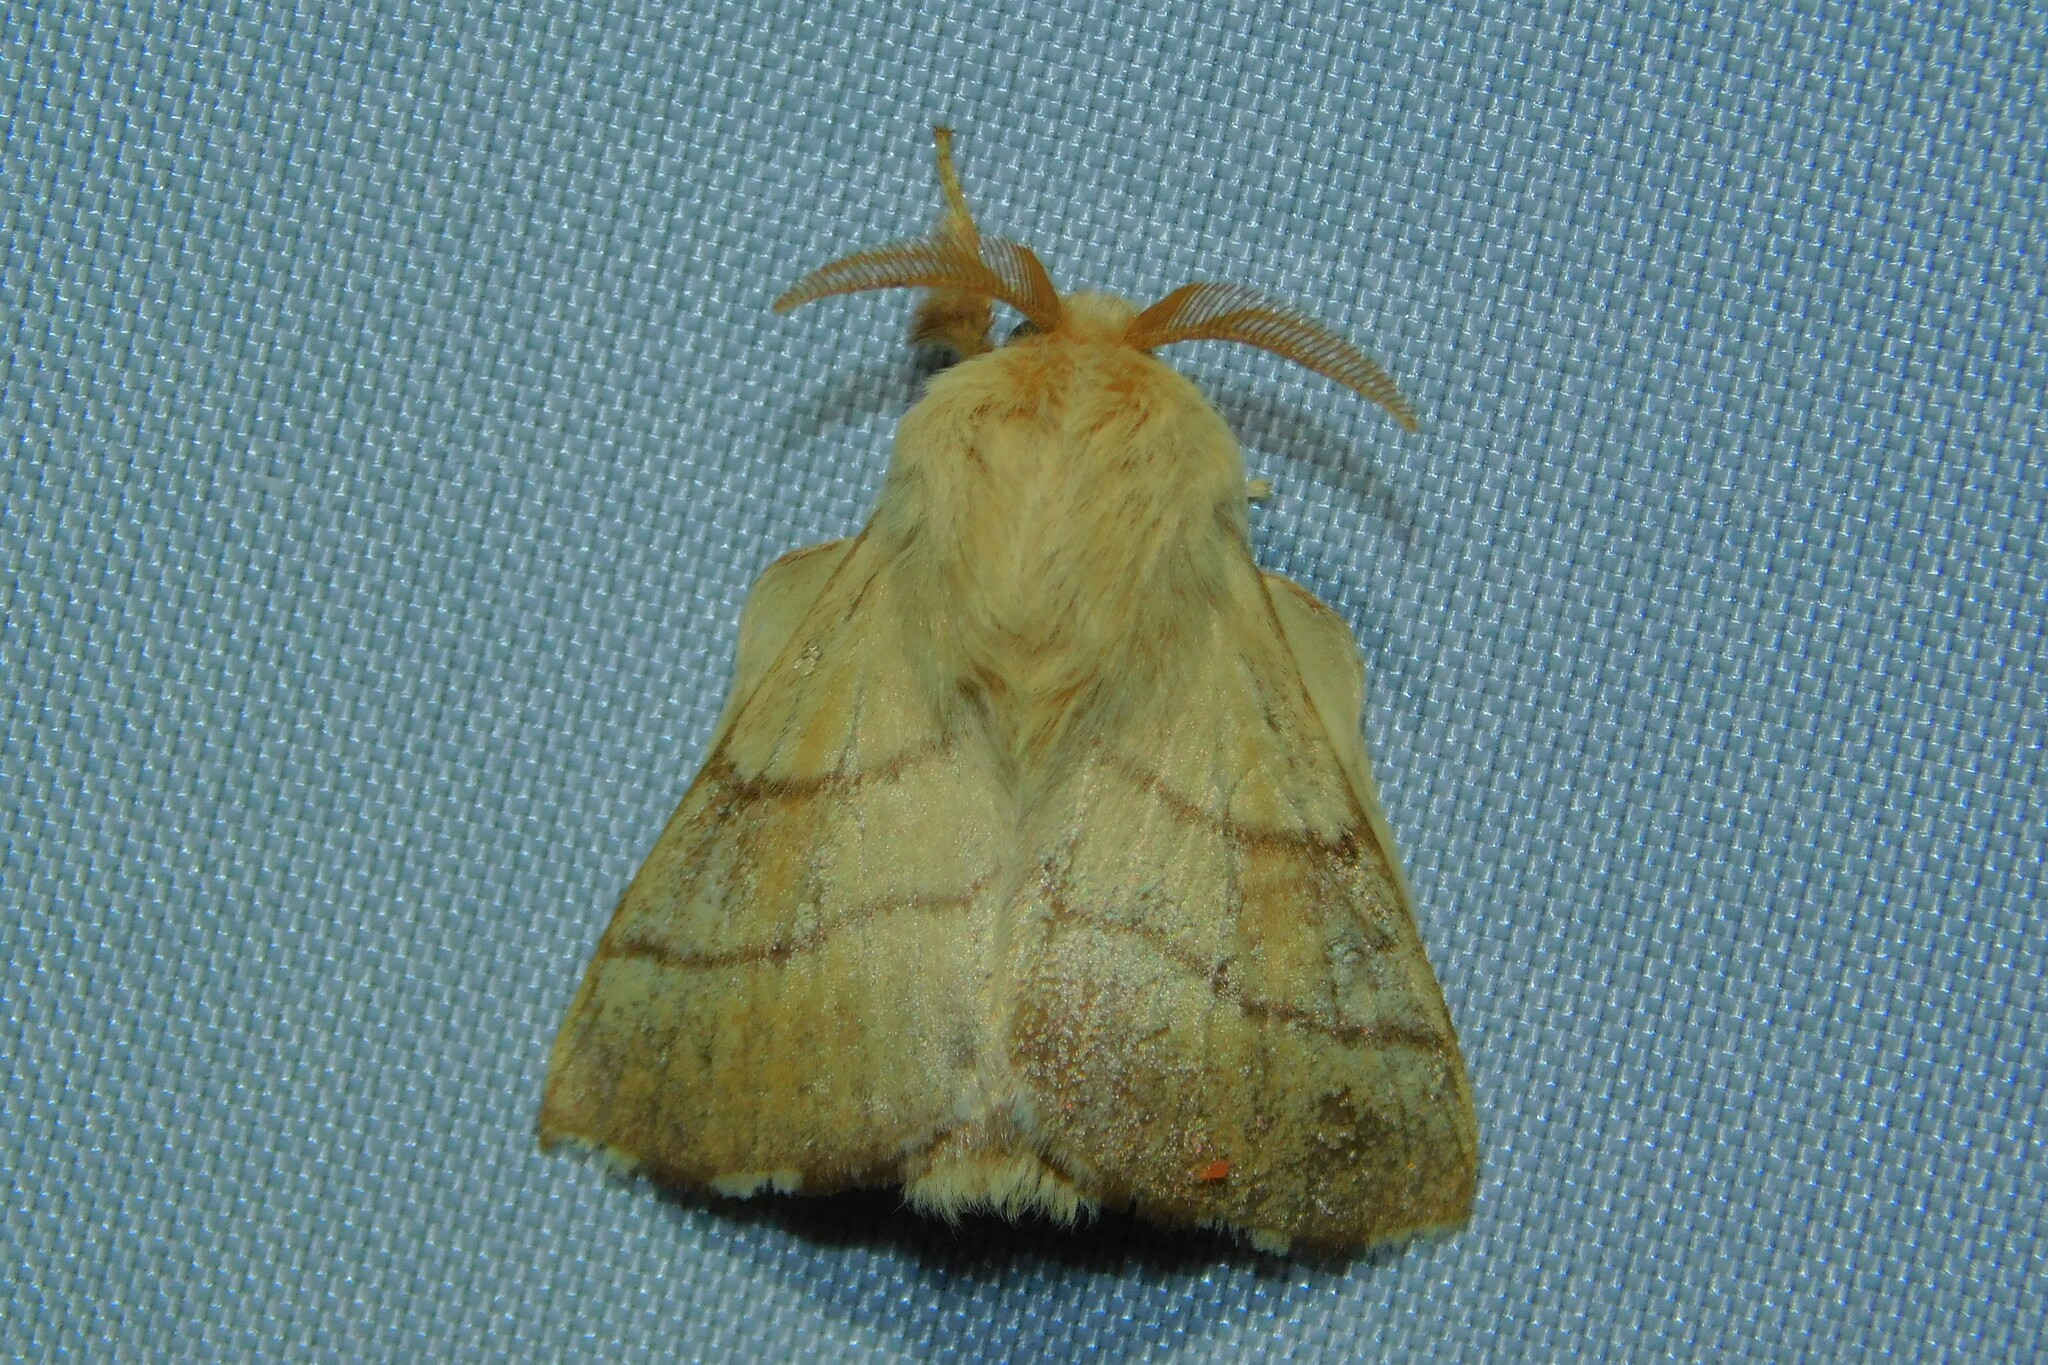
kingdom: Animalia
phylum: Arthropoda
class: Insecta
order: Lepidoptera
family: Lasiocampidae
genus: Malacosoma
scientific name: Malacosoma neustria
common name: The lackey
